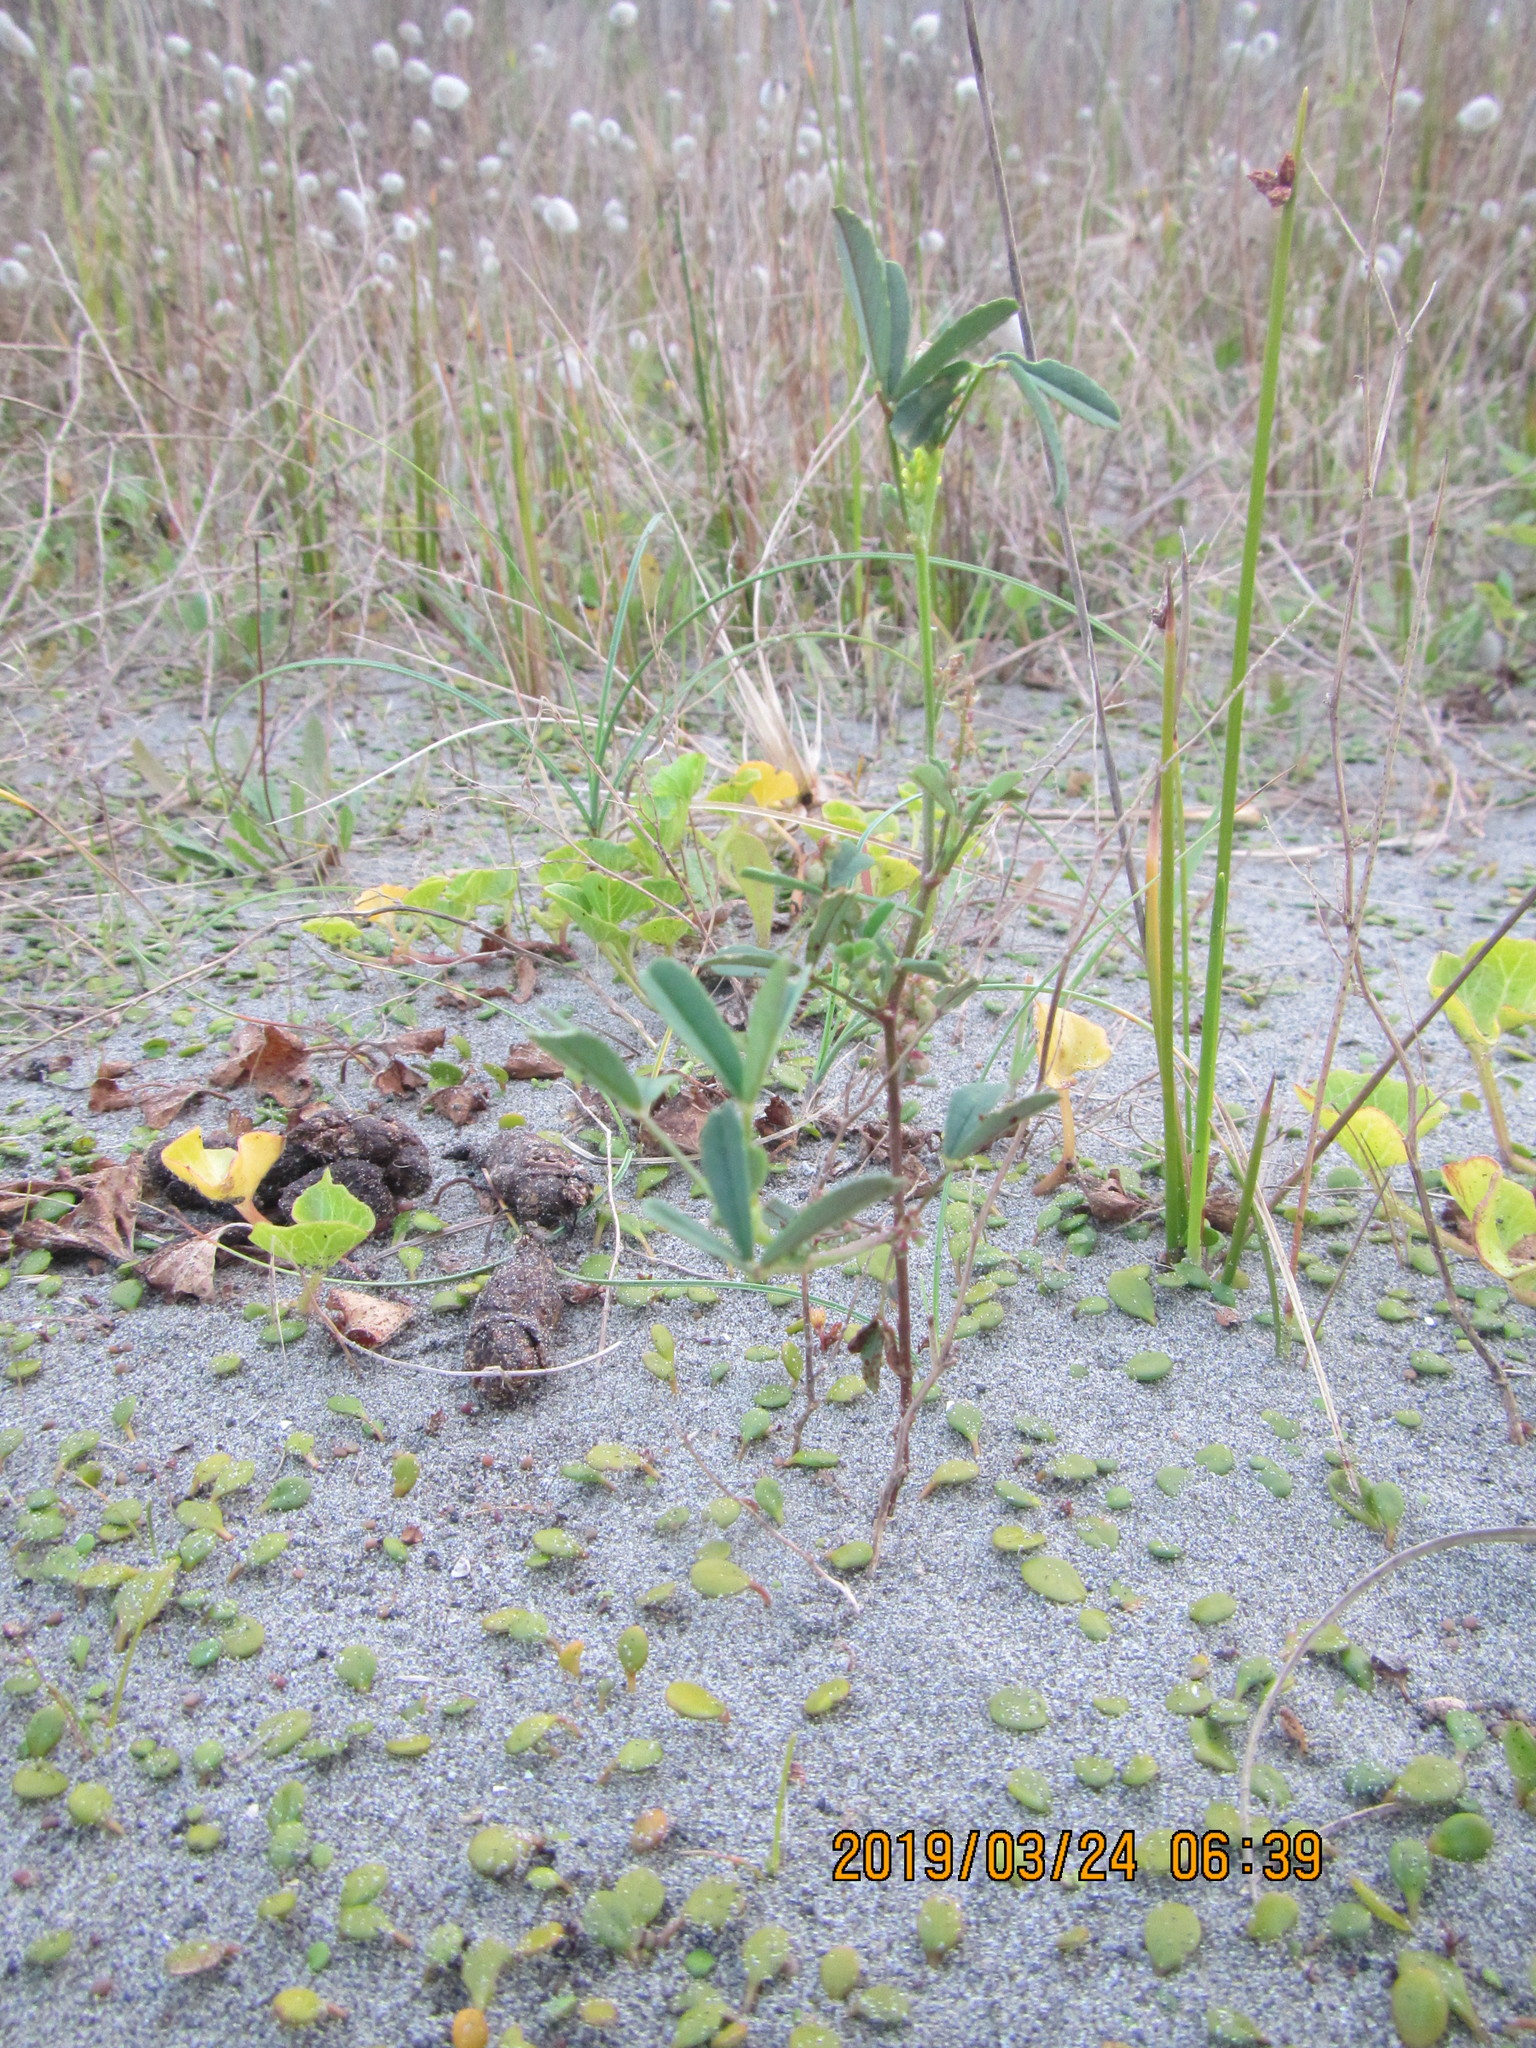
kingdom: Plantae
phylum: Tracheophyta
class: Magnoliopsida
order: Fabales
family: Fabaceae
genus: Melilotus
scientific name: Melilotus indicus
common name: Small melilot
